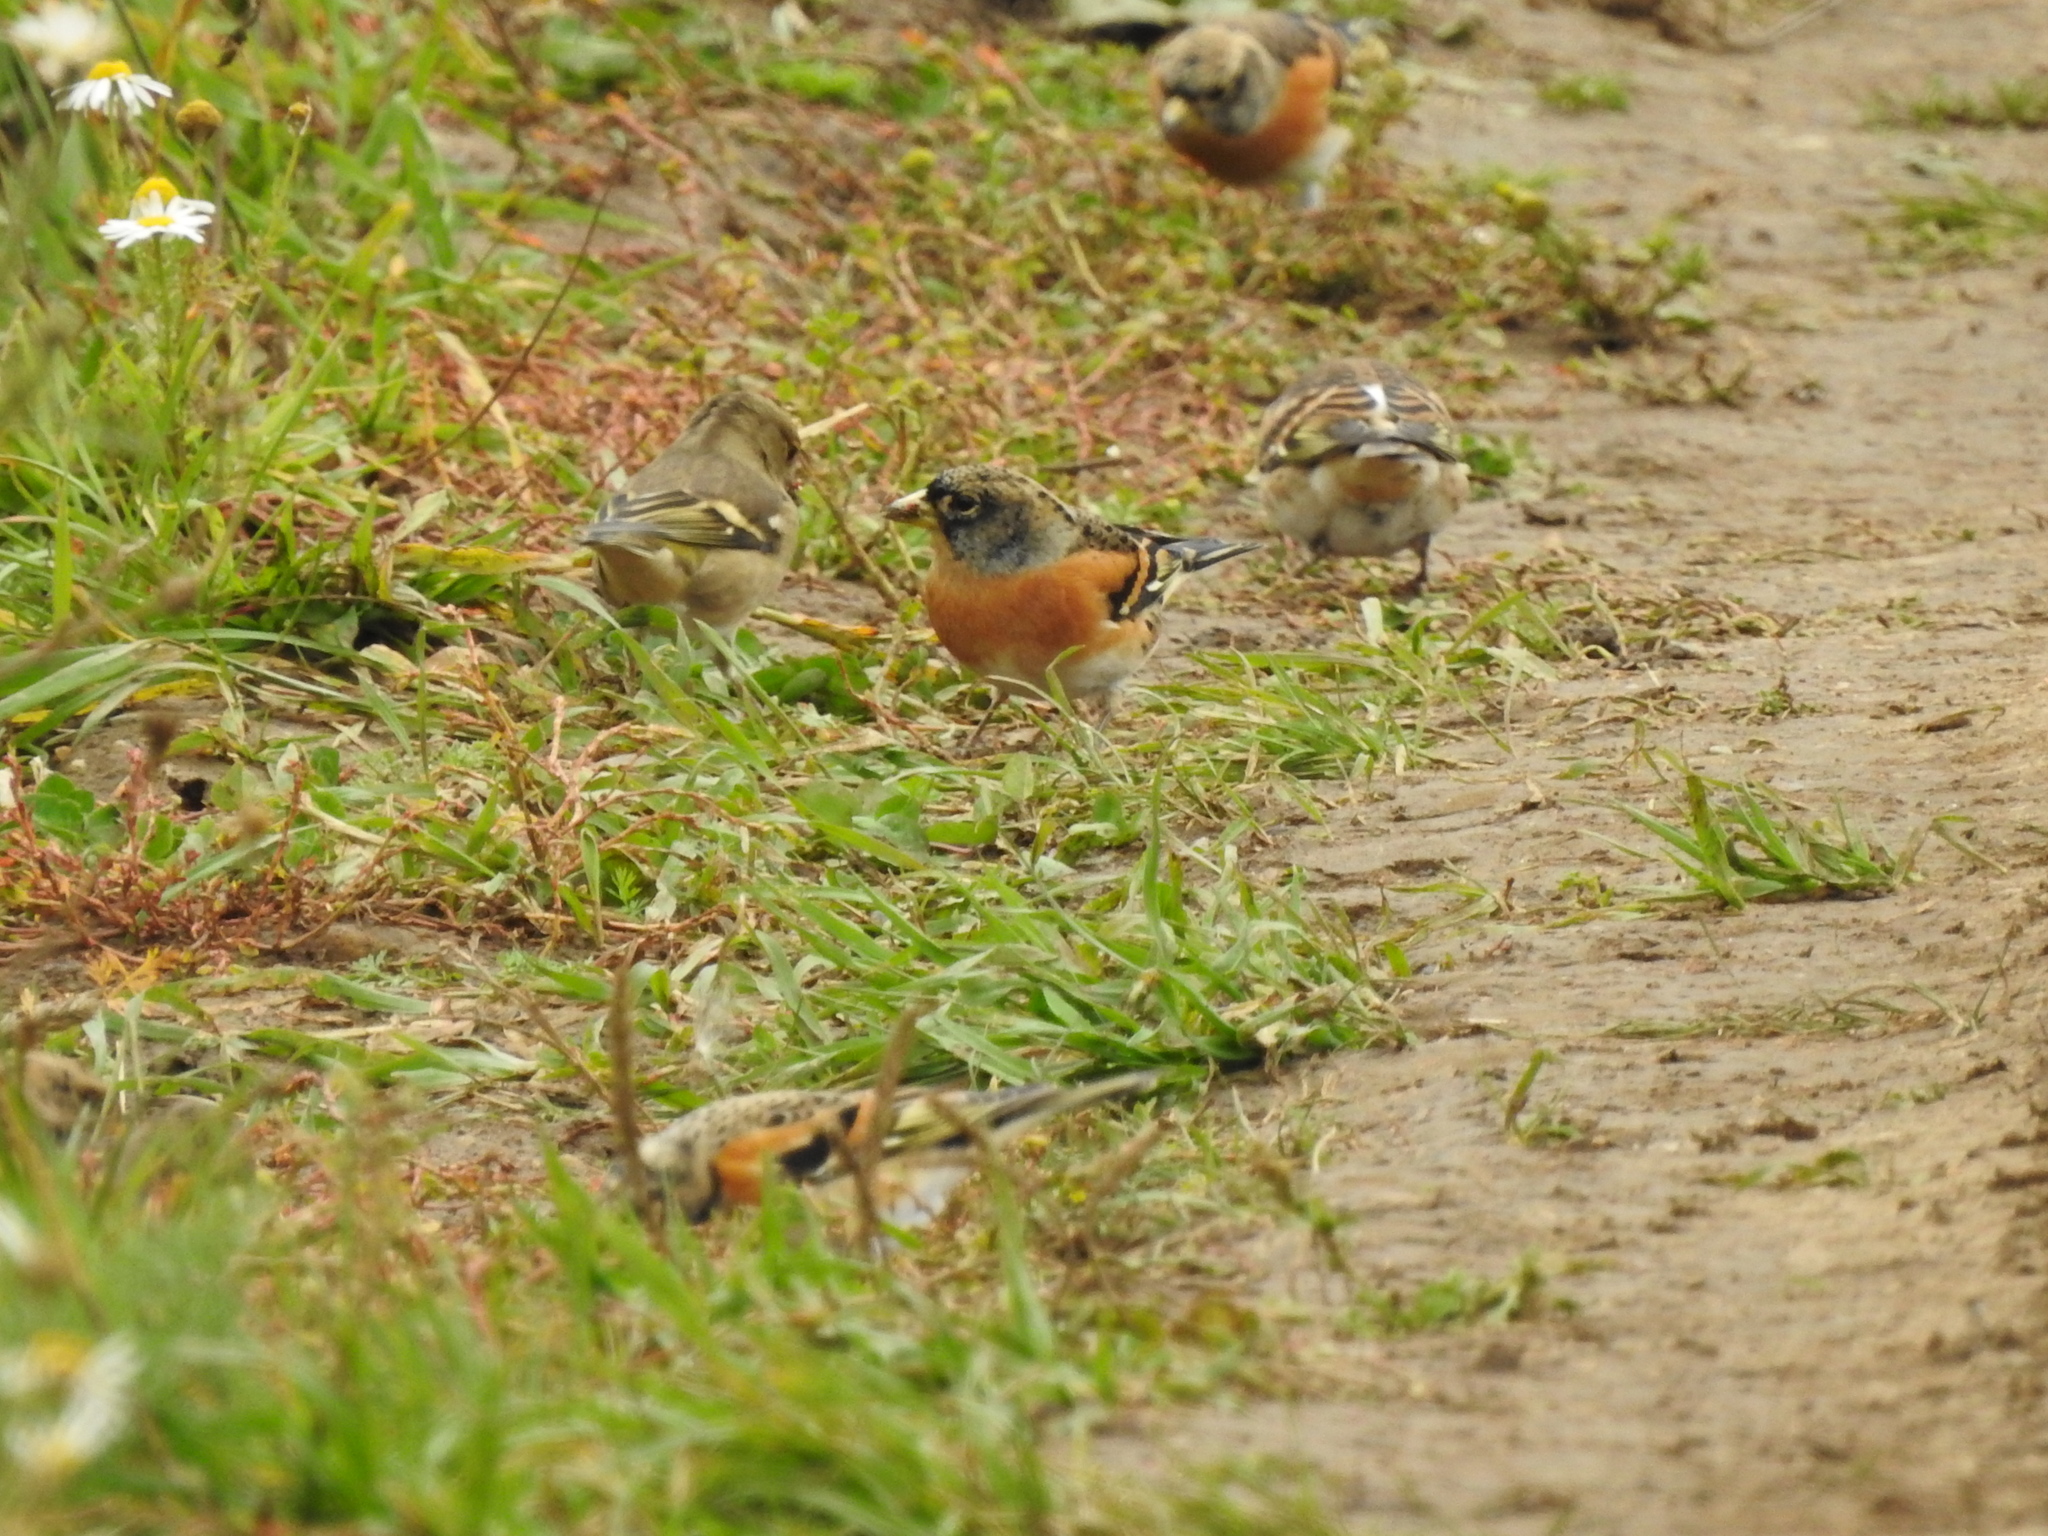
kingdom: Animalia
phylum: Chordata
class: Aves
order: Passeriformes
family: Fringillidae
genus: Fringilla
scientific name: Fringilla montifringilla
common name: Brambling
